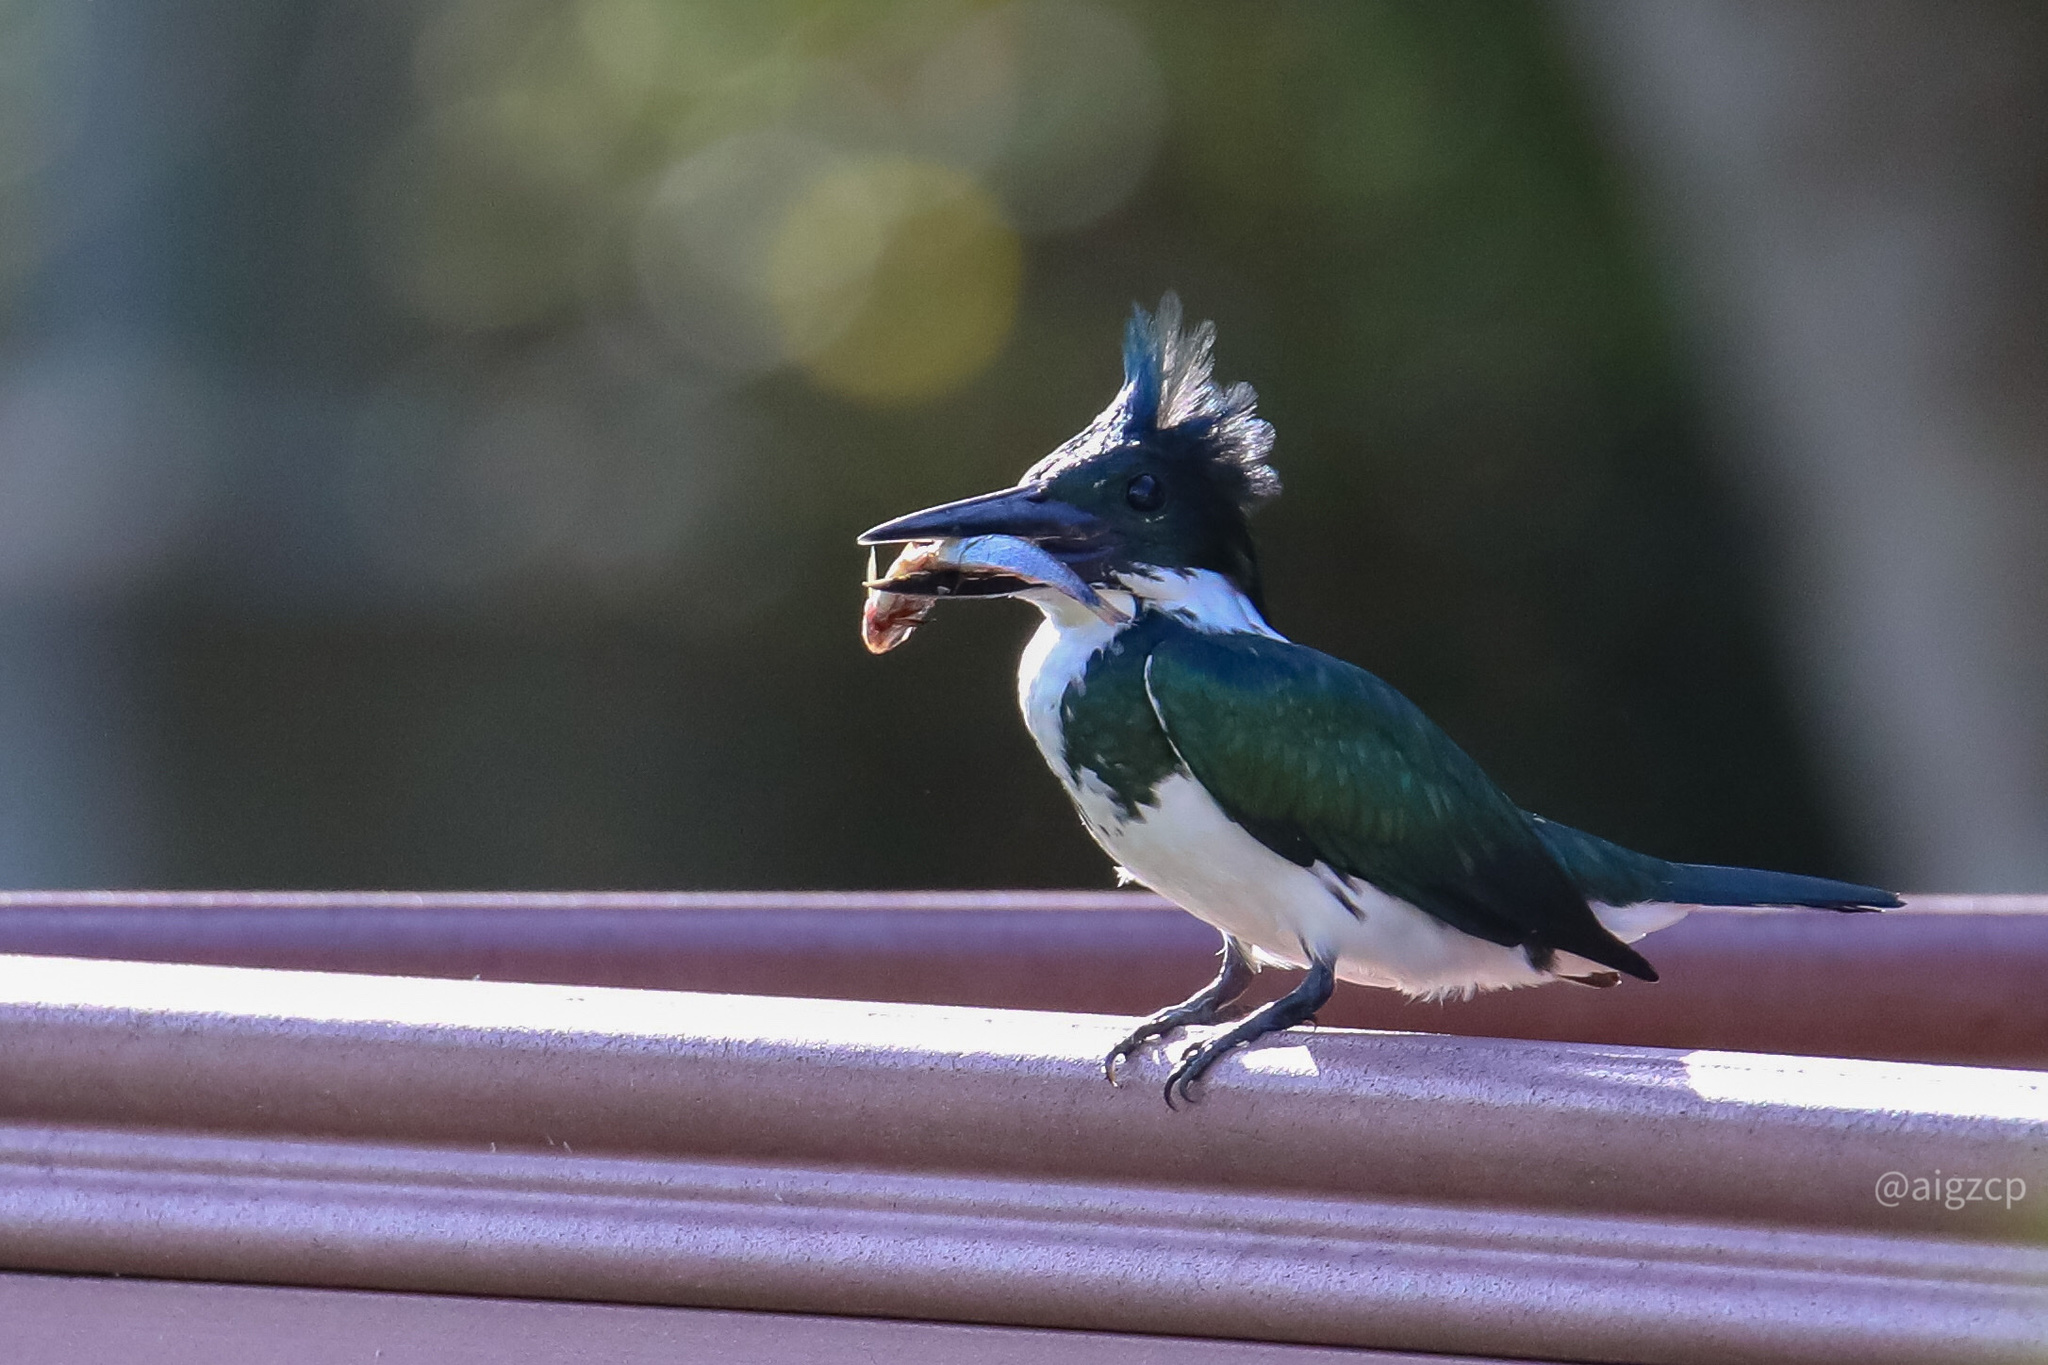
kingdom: Animalia
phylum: Chordata
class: Aves
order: Coraciiformes
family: Alcedinidae
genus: Chloroceryle
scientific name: Chloroceryle amazona
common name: Amazon kingfisher
